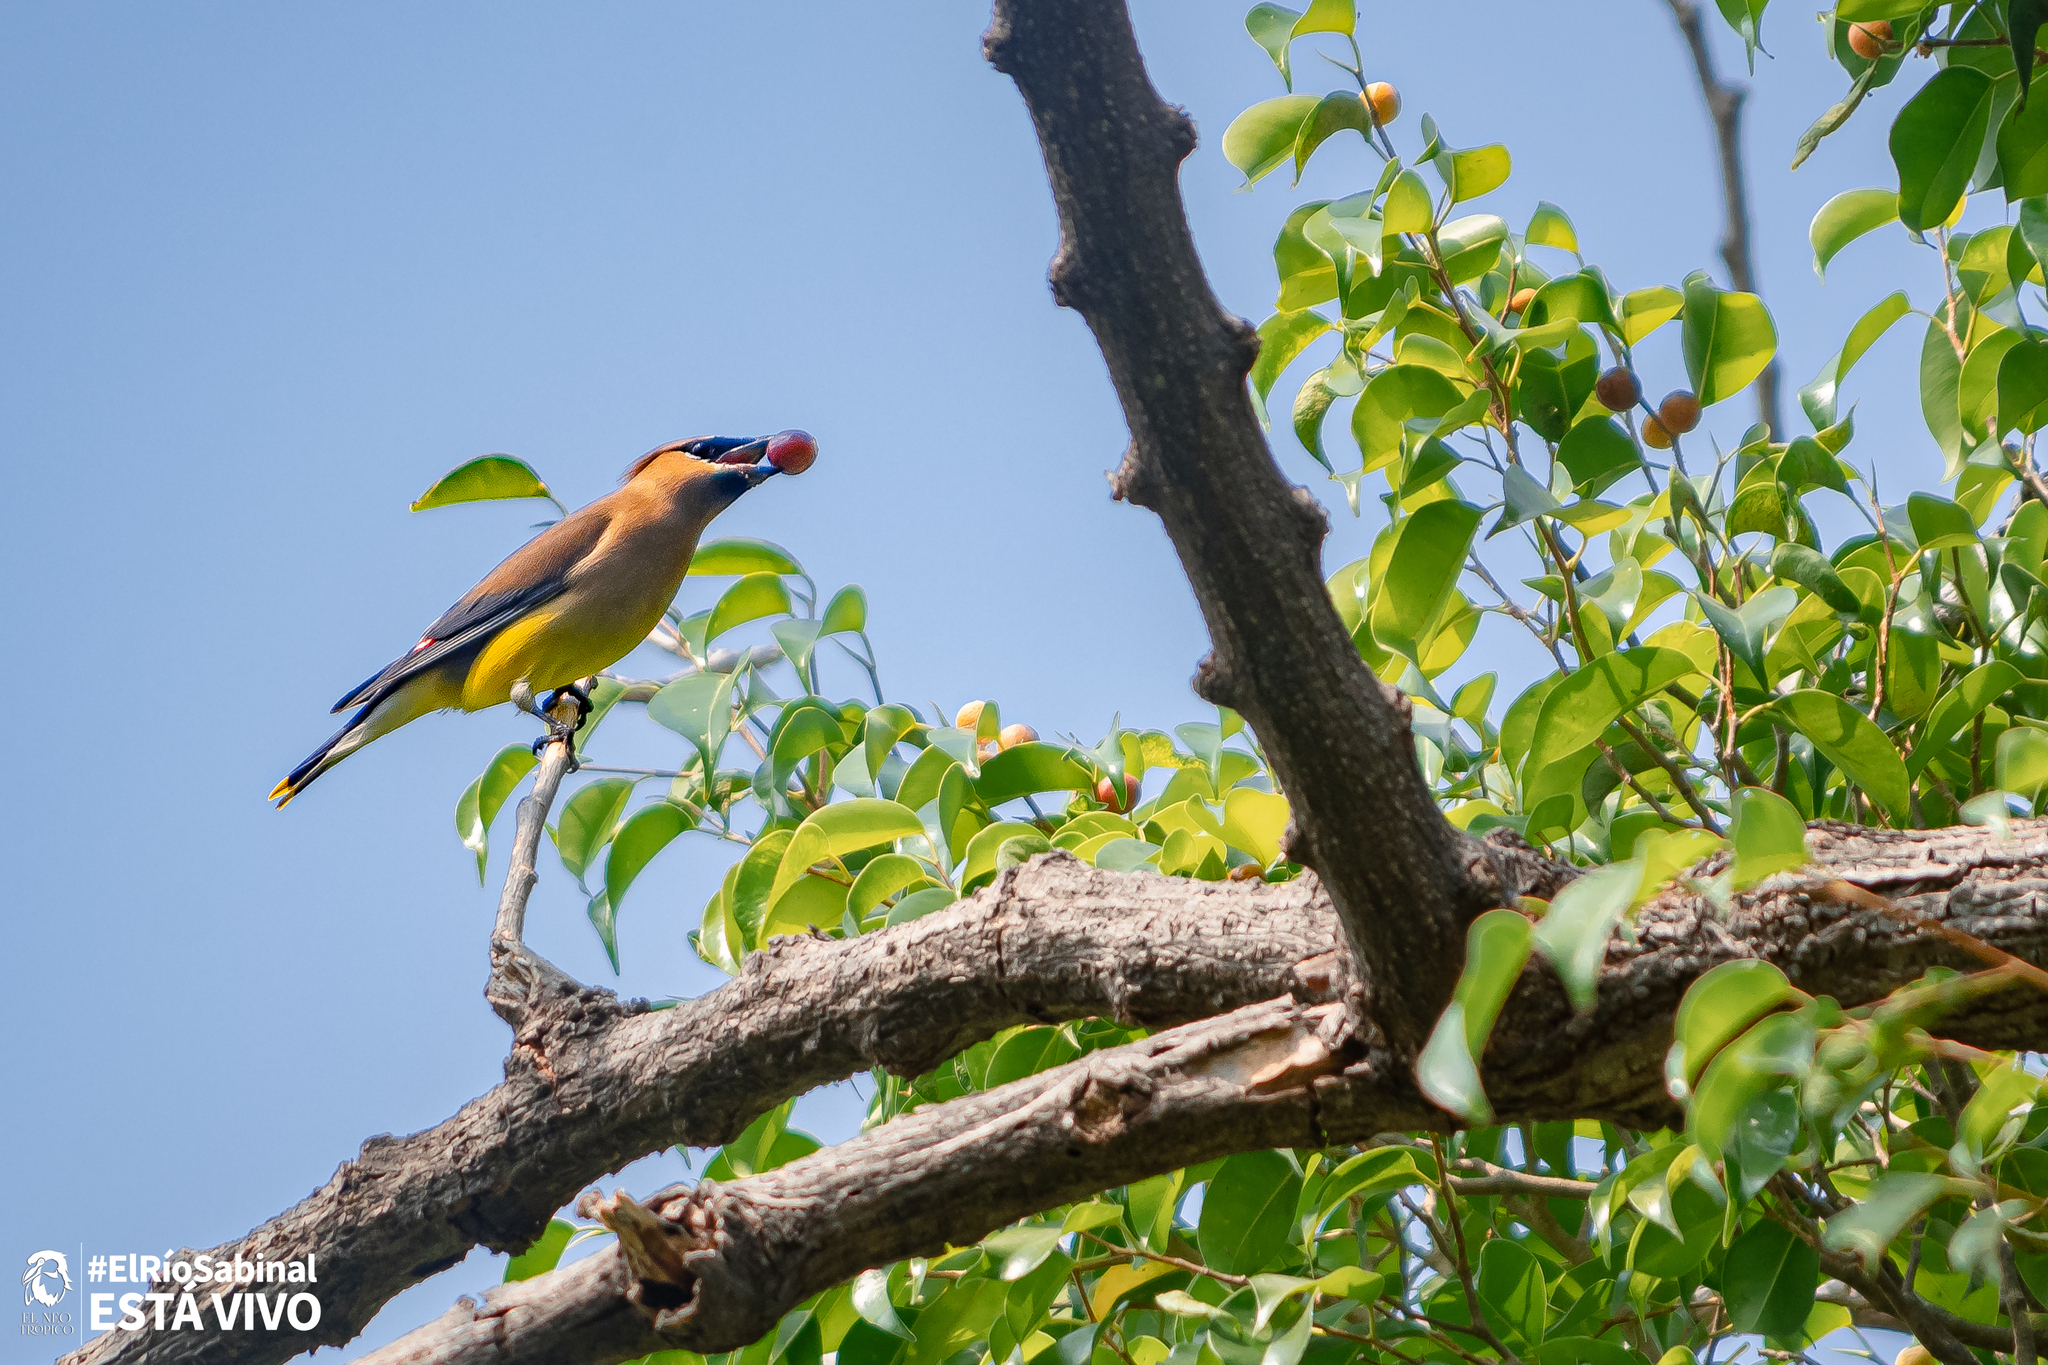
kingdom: Animalia
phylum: Chordata
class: Aves
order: Passeriformes
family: Bombycillidae
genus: Bombycilla
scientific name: Bombycilla cedrorum
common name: Cedar waxwing
